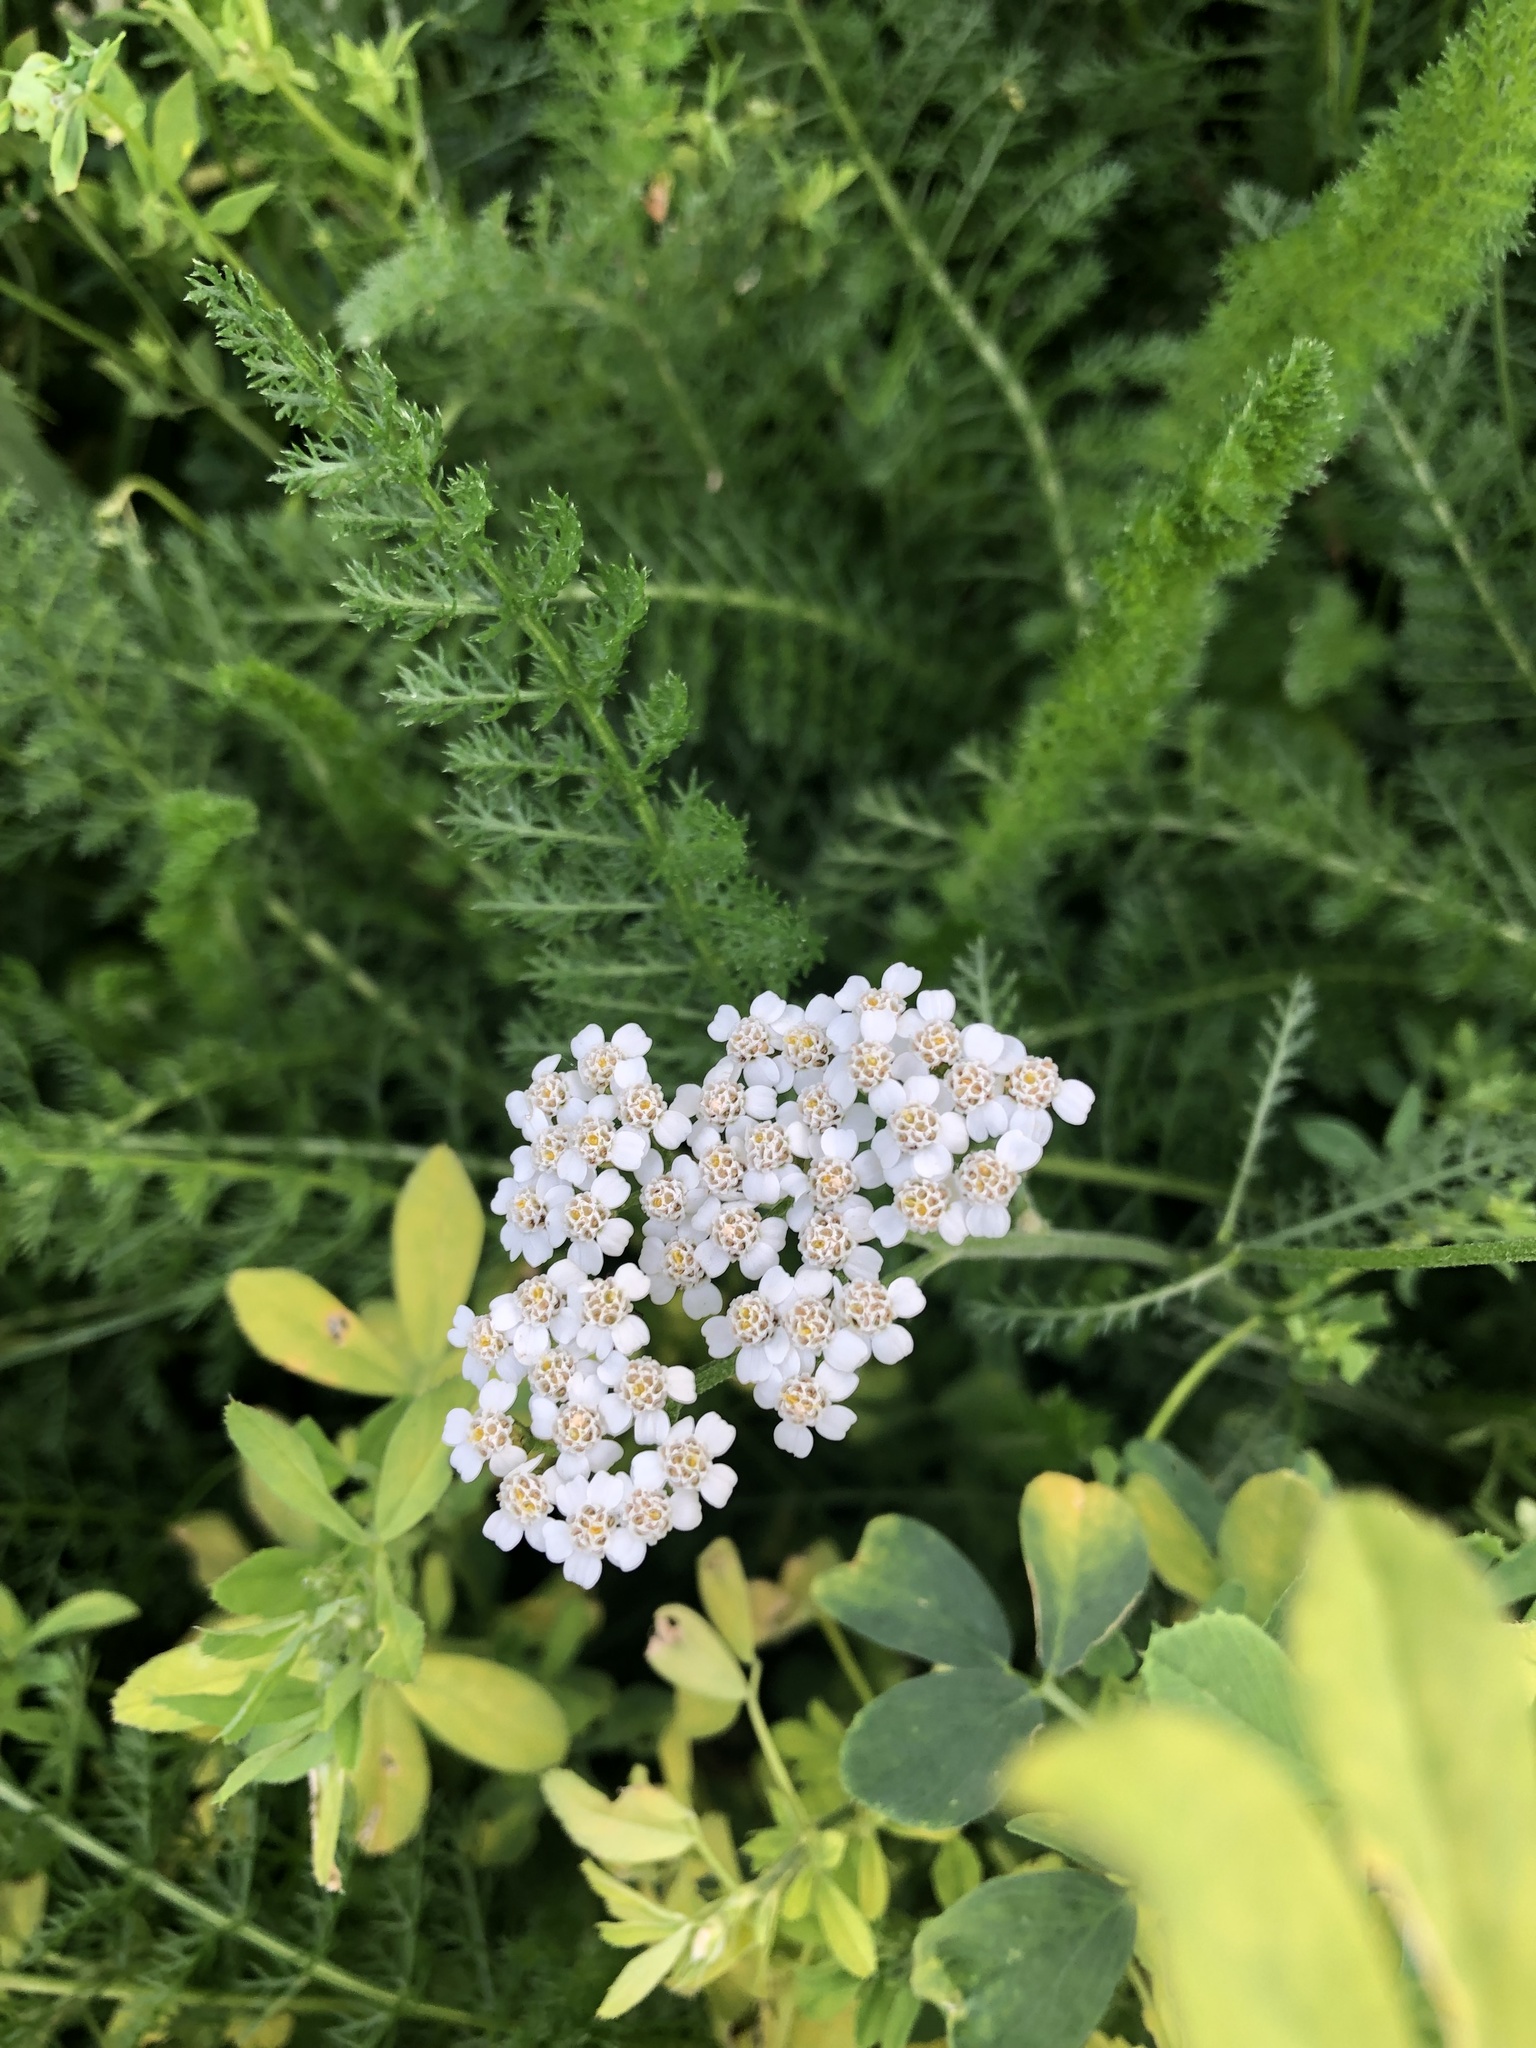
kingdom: Plantae
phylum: Tracheophyta
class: Magnoliopsida
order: Asterales
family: Asteraceae
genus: Achillea
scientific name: Achillea millefolium
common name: Yarrow
